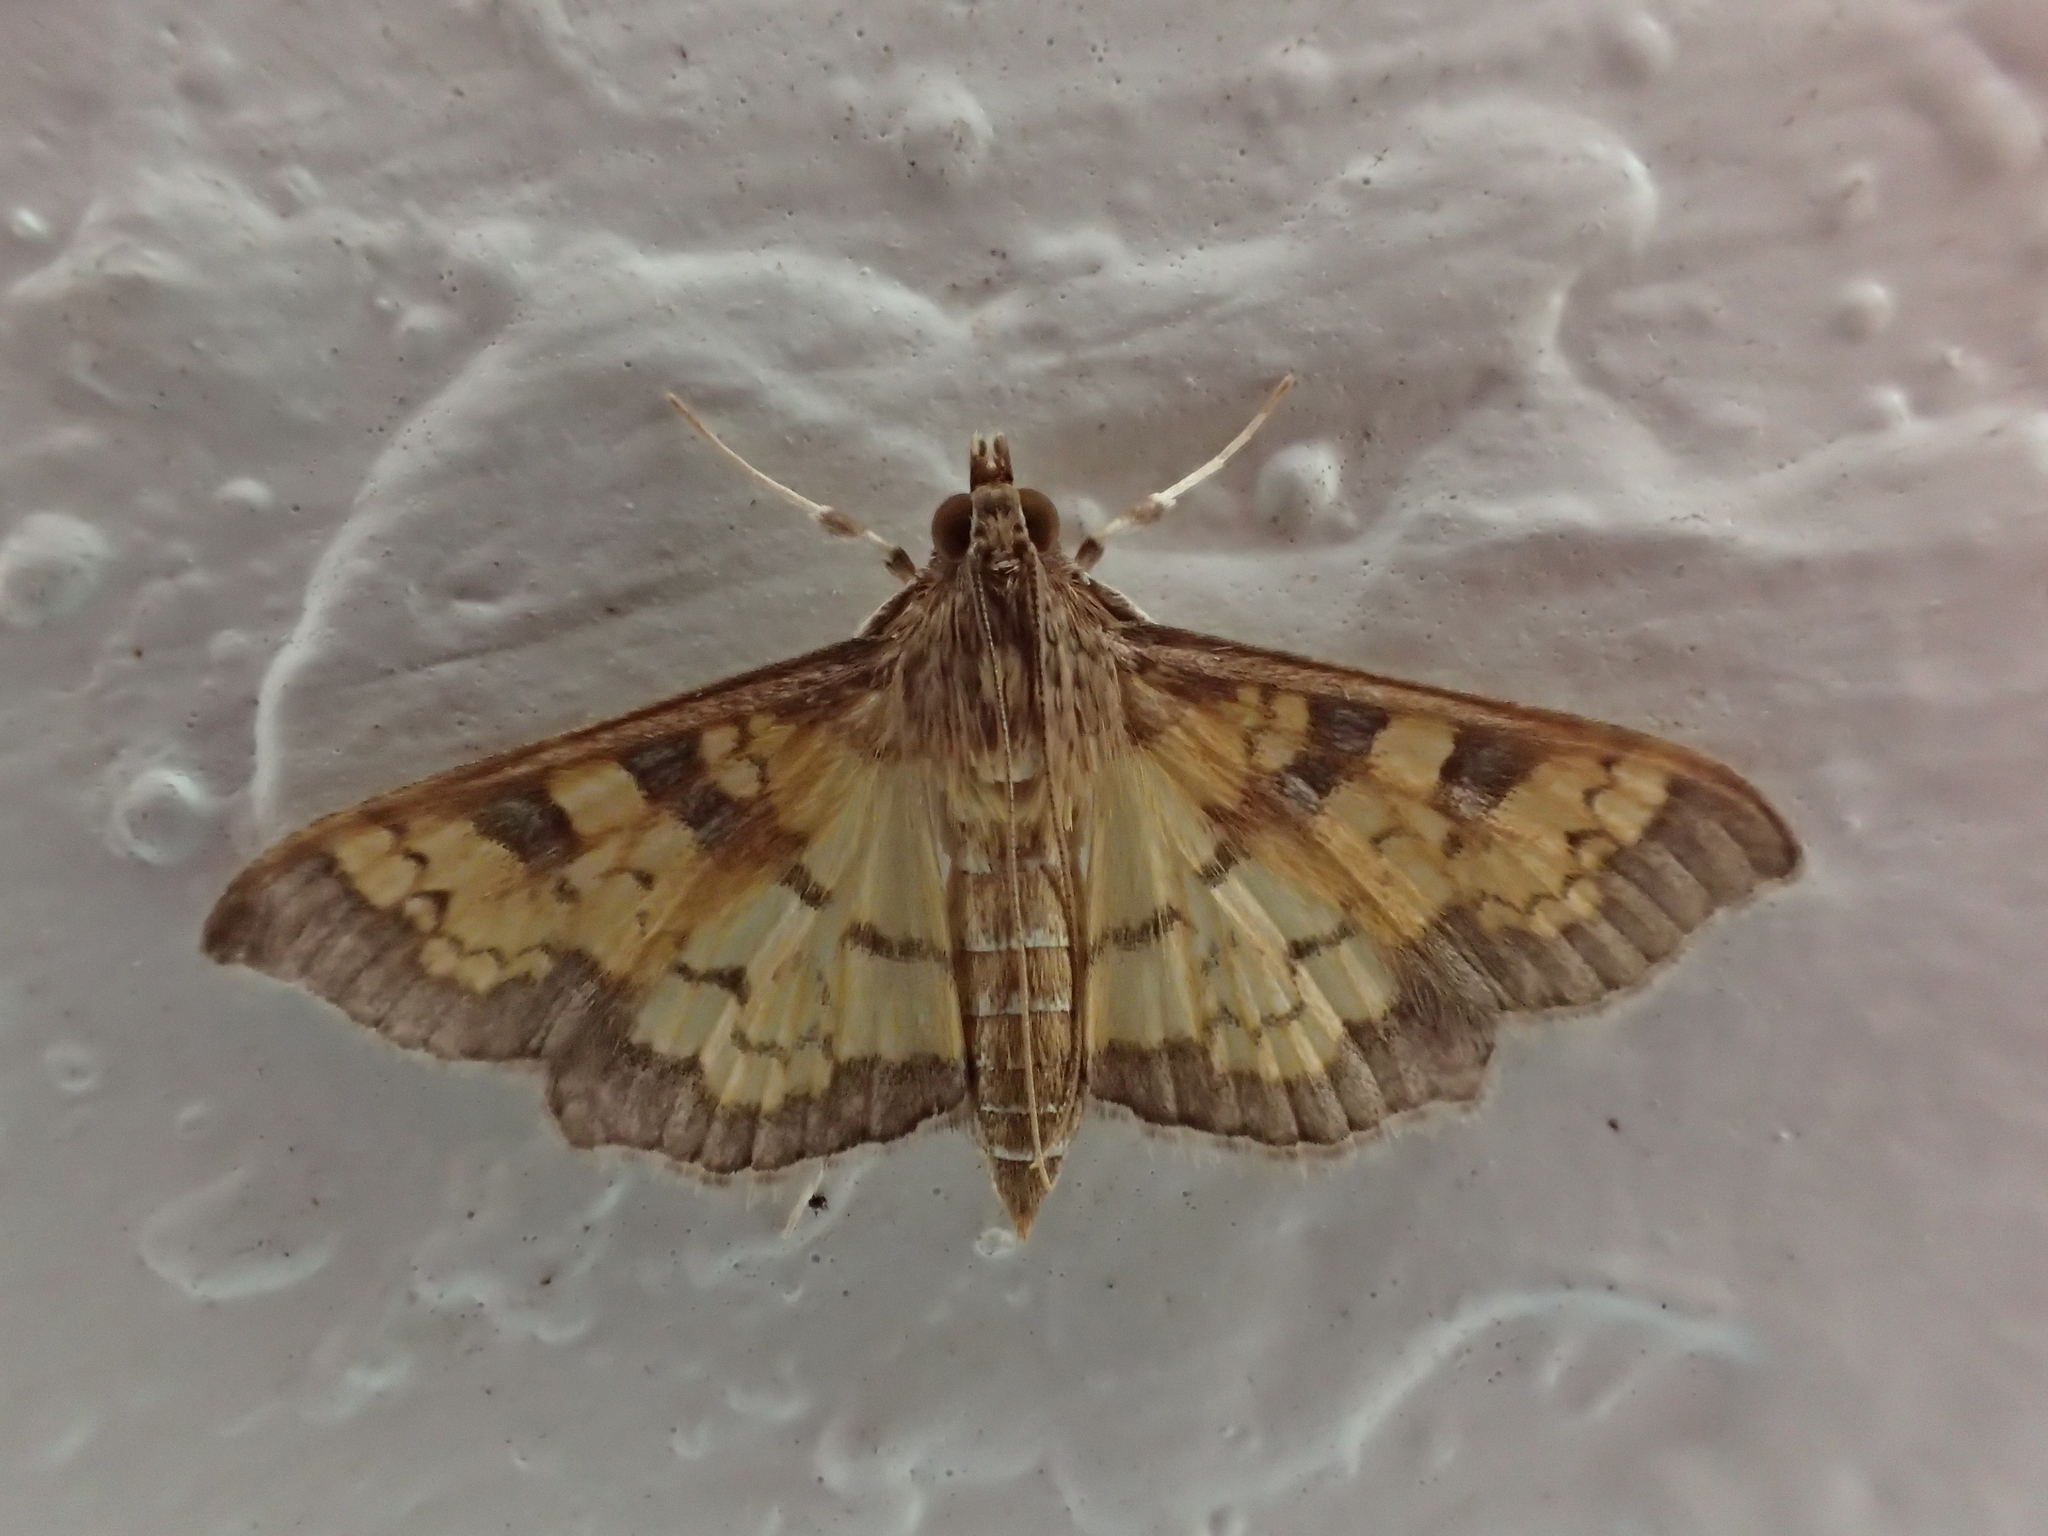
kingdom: Animalia
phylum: Arthropoda
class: Insecta
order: Lepidoptera
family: Crambidae
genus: Cryptographis
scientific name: Cryptographis elealis
